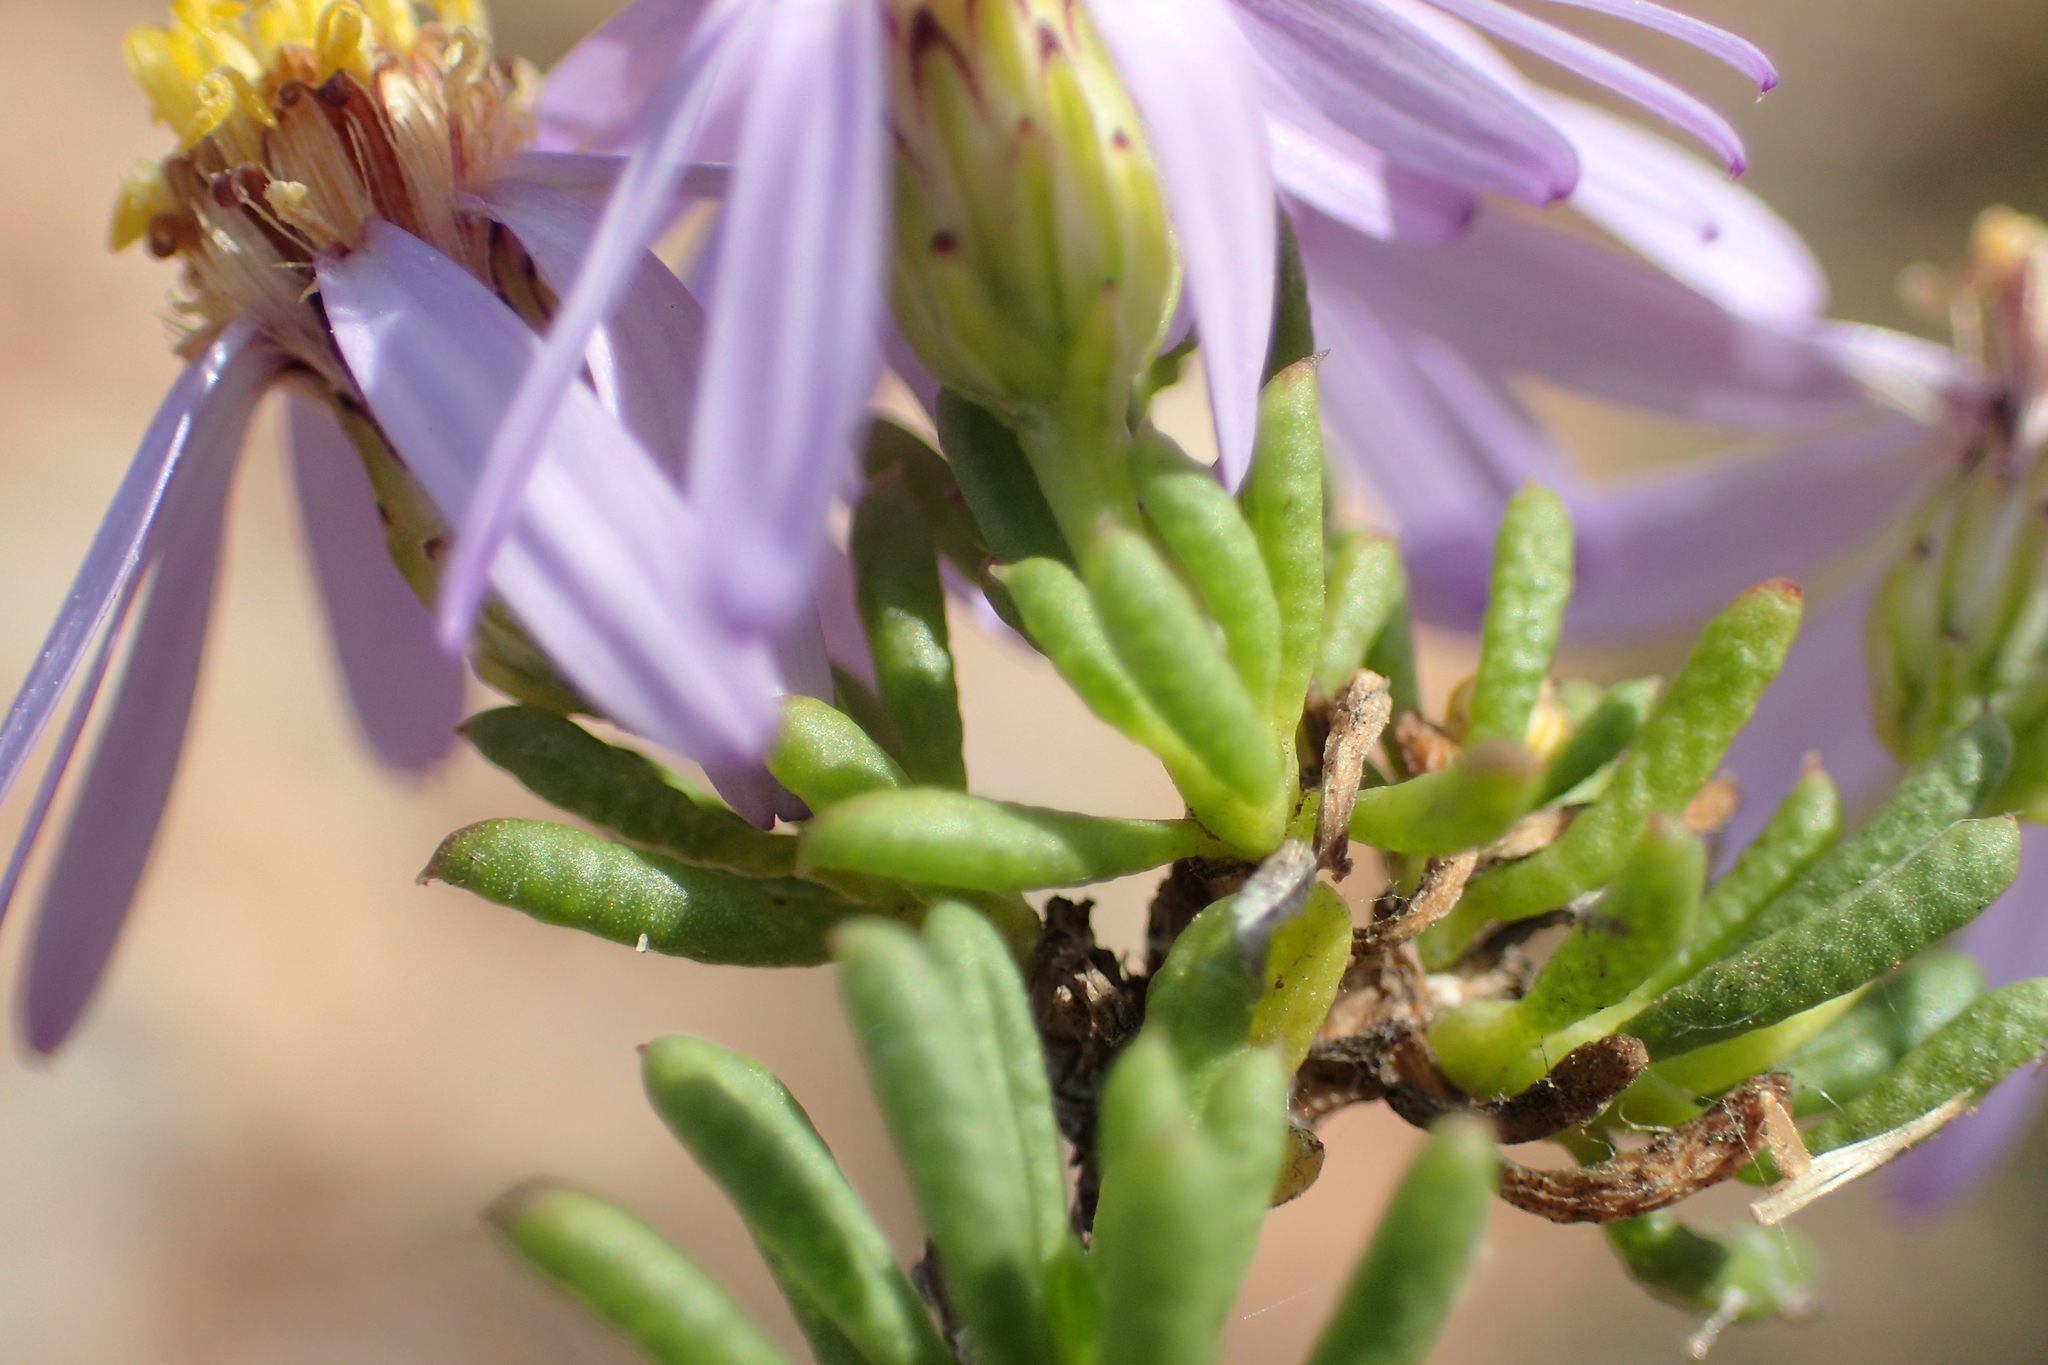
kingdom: Plantae
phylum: Tracheophyta
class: Magnoliopsida
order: Asterales
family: Asteraceae
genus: Felicia
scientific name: Felicia filifolia
